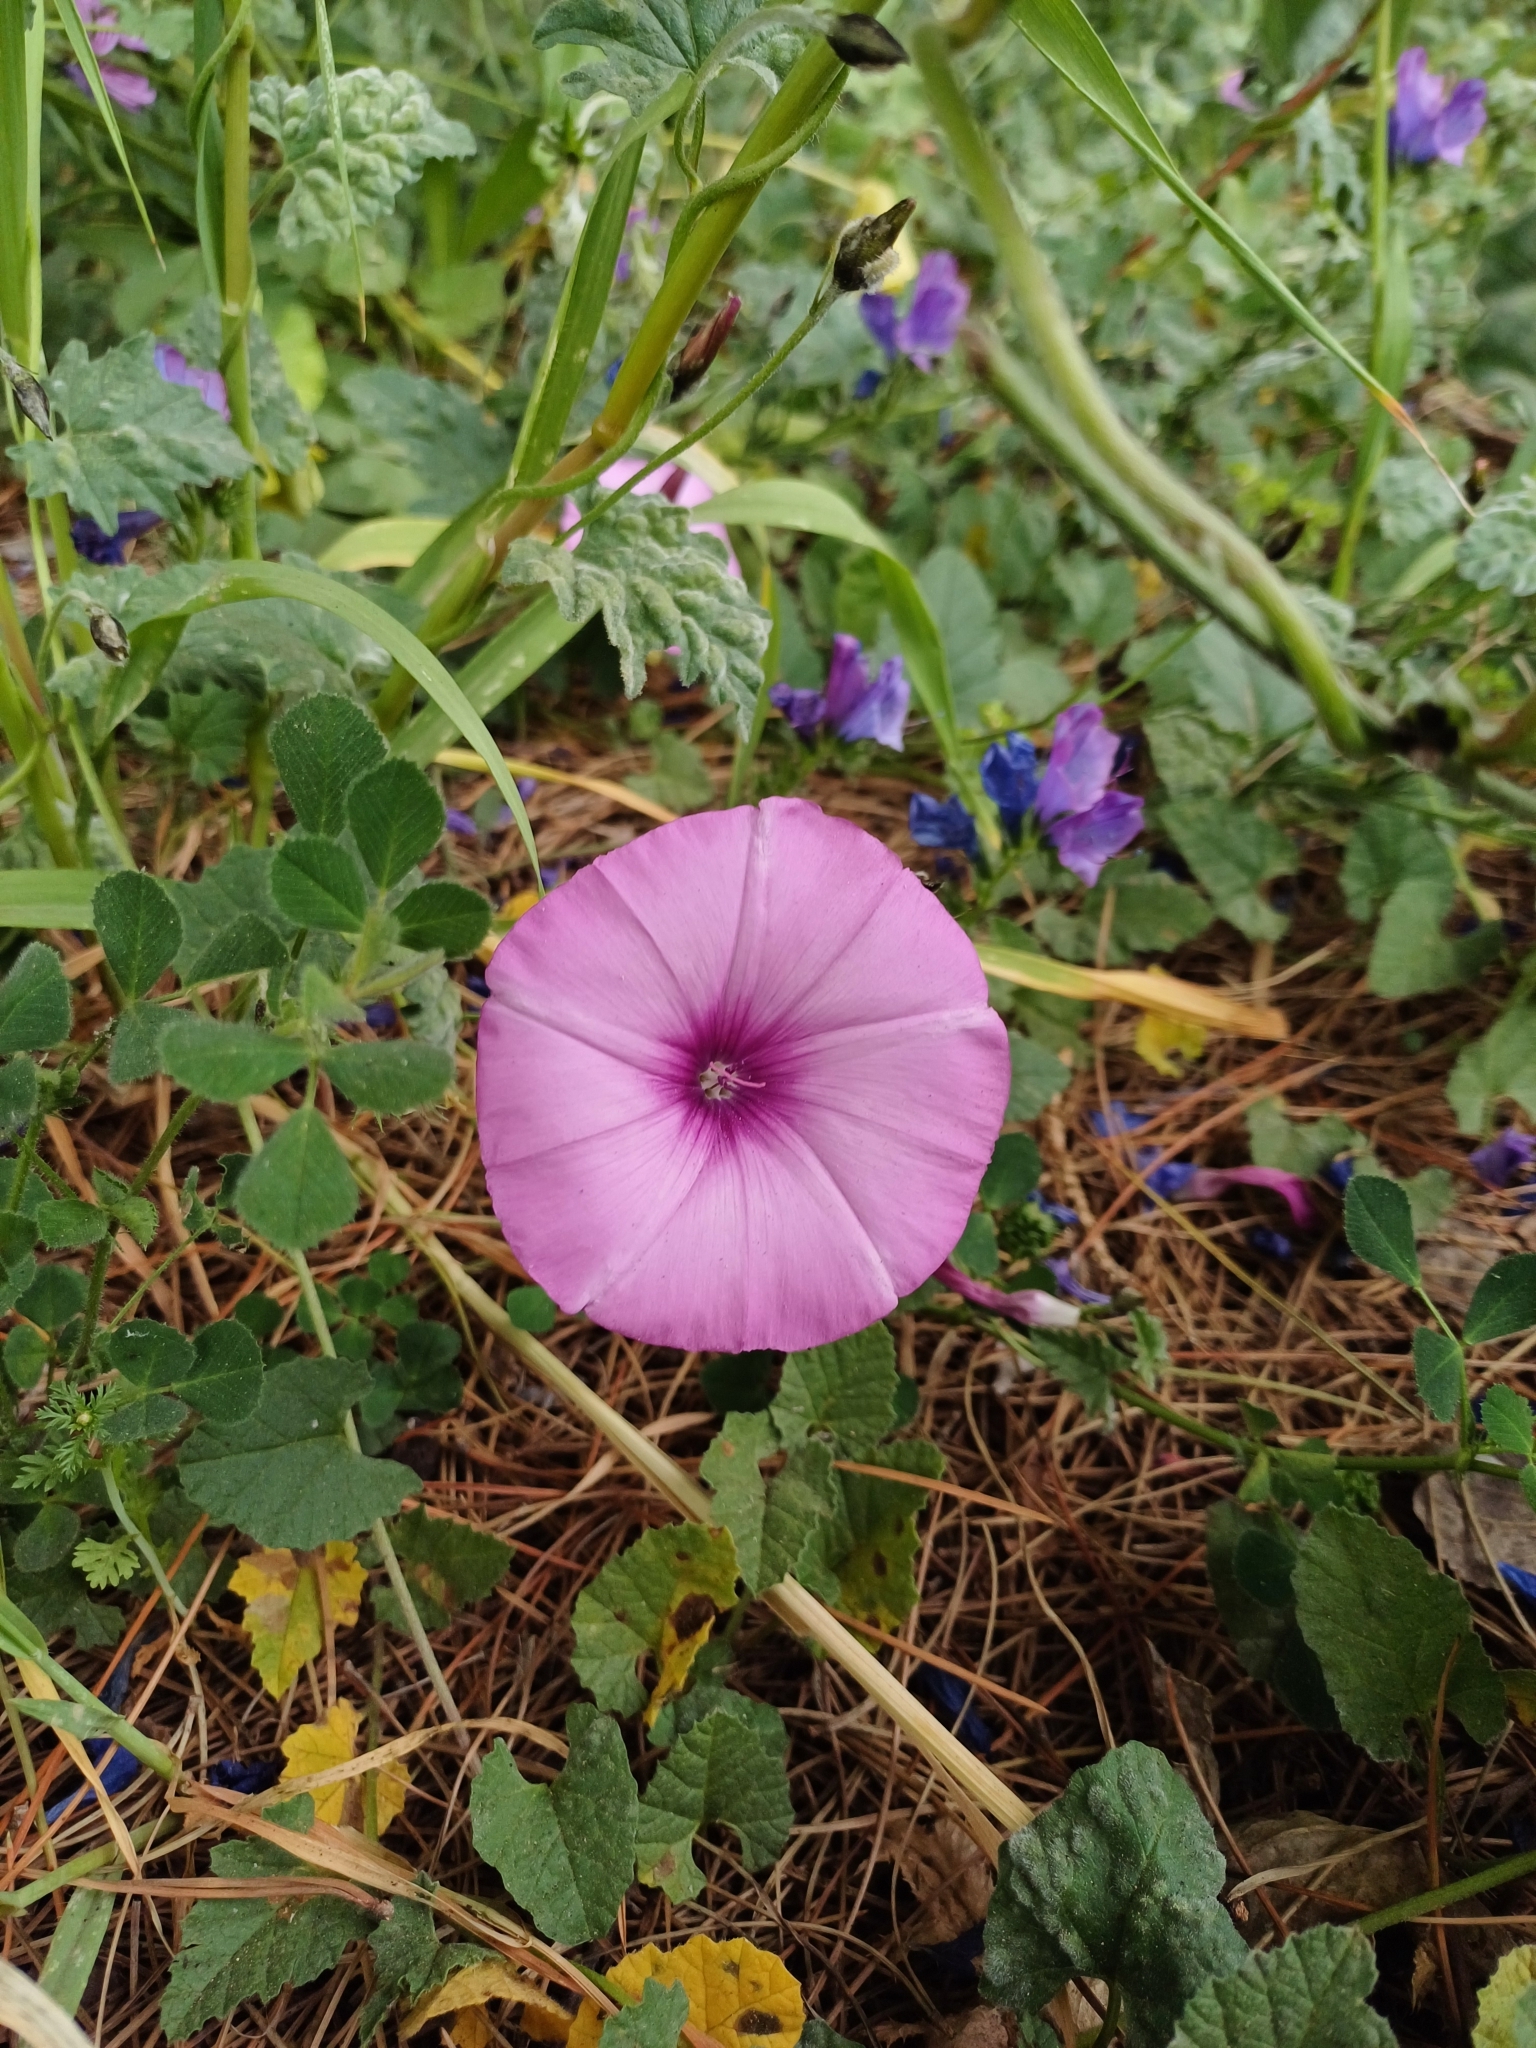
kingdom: Plantae
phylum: Tracheophyta
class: Magnoliopsida
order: Solanales
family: Convolvulaceae
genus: Convolvulus
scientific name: Convolvulus althaeoides
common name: Mallow bindweed
